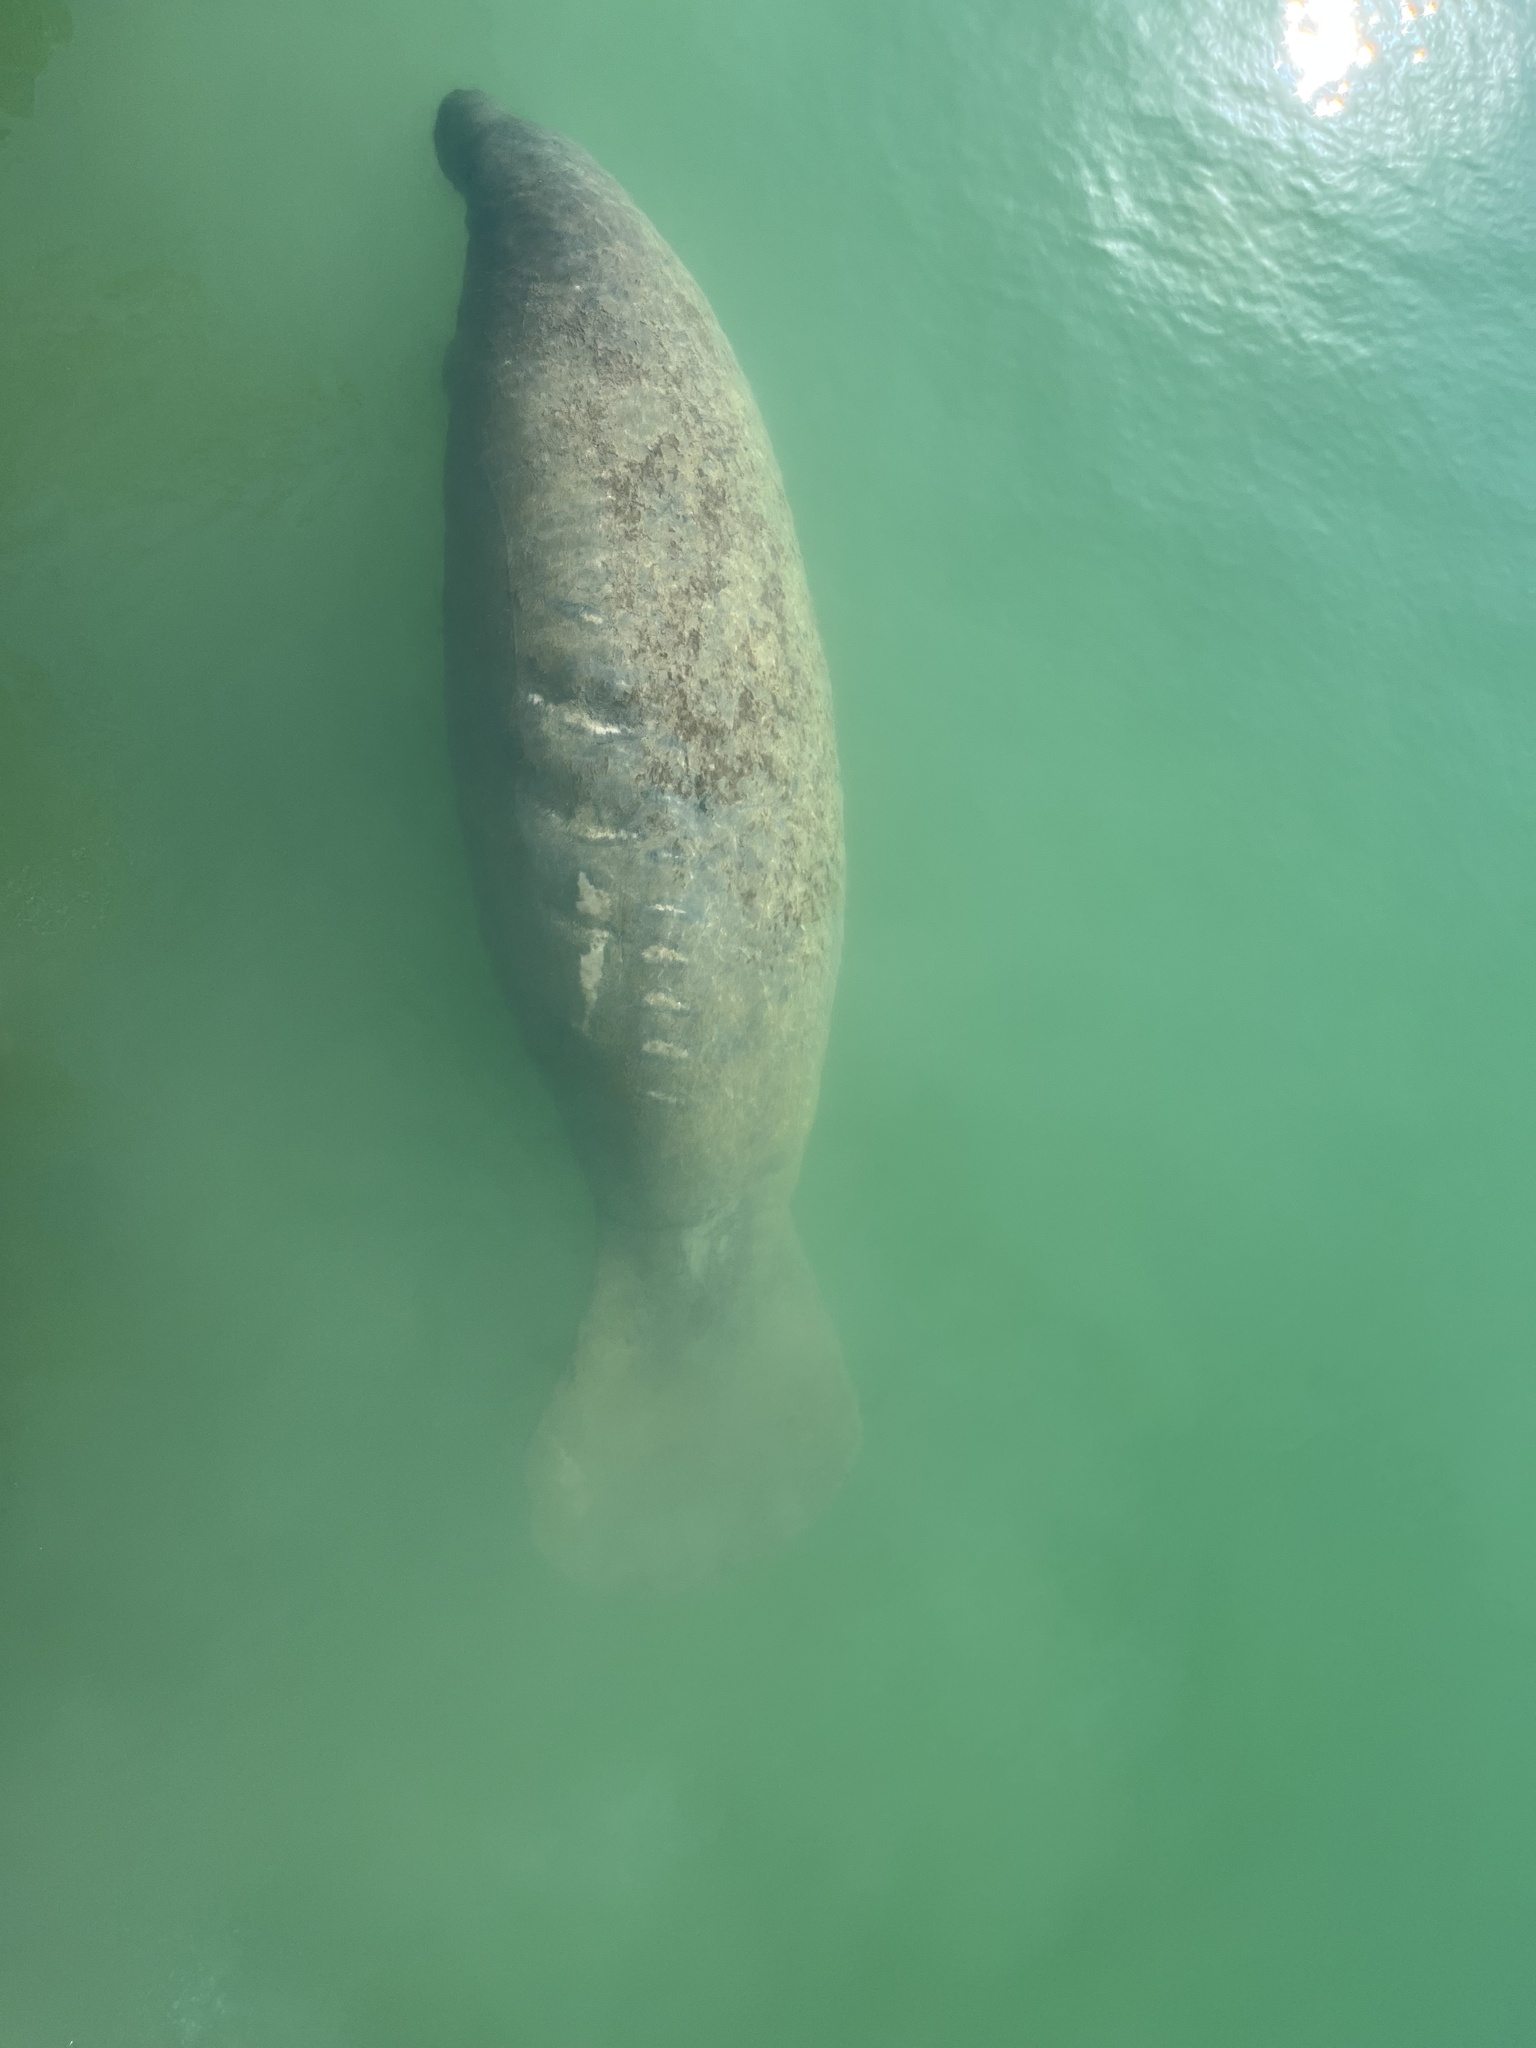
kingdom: Animalia
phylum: Chordata
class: Mammalia
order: Sirenia
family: Trichechidae
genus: Trichechus
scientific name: Trichechus manatus
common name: West indian manatee
